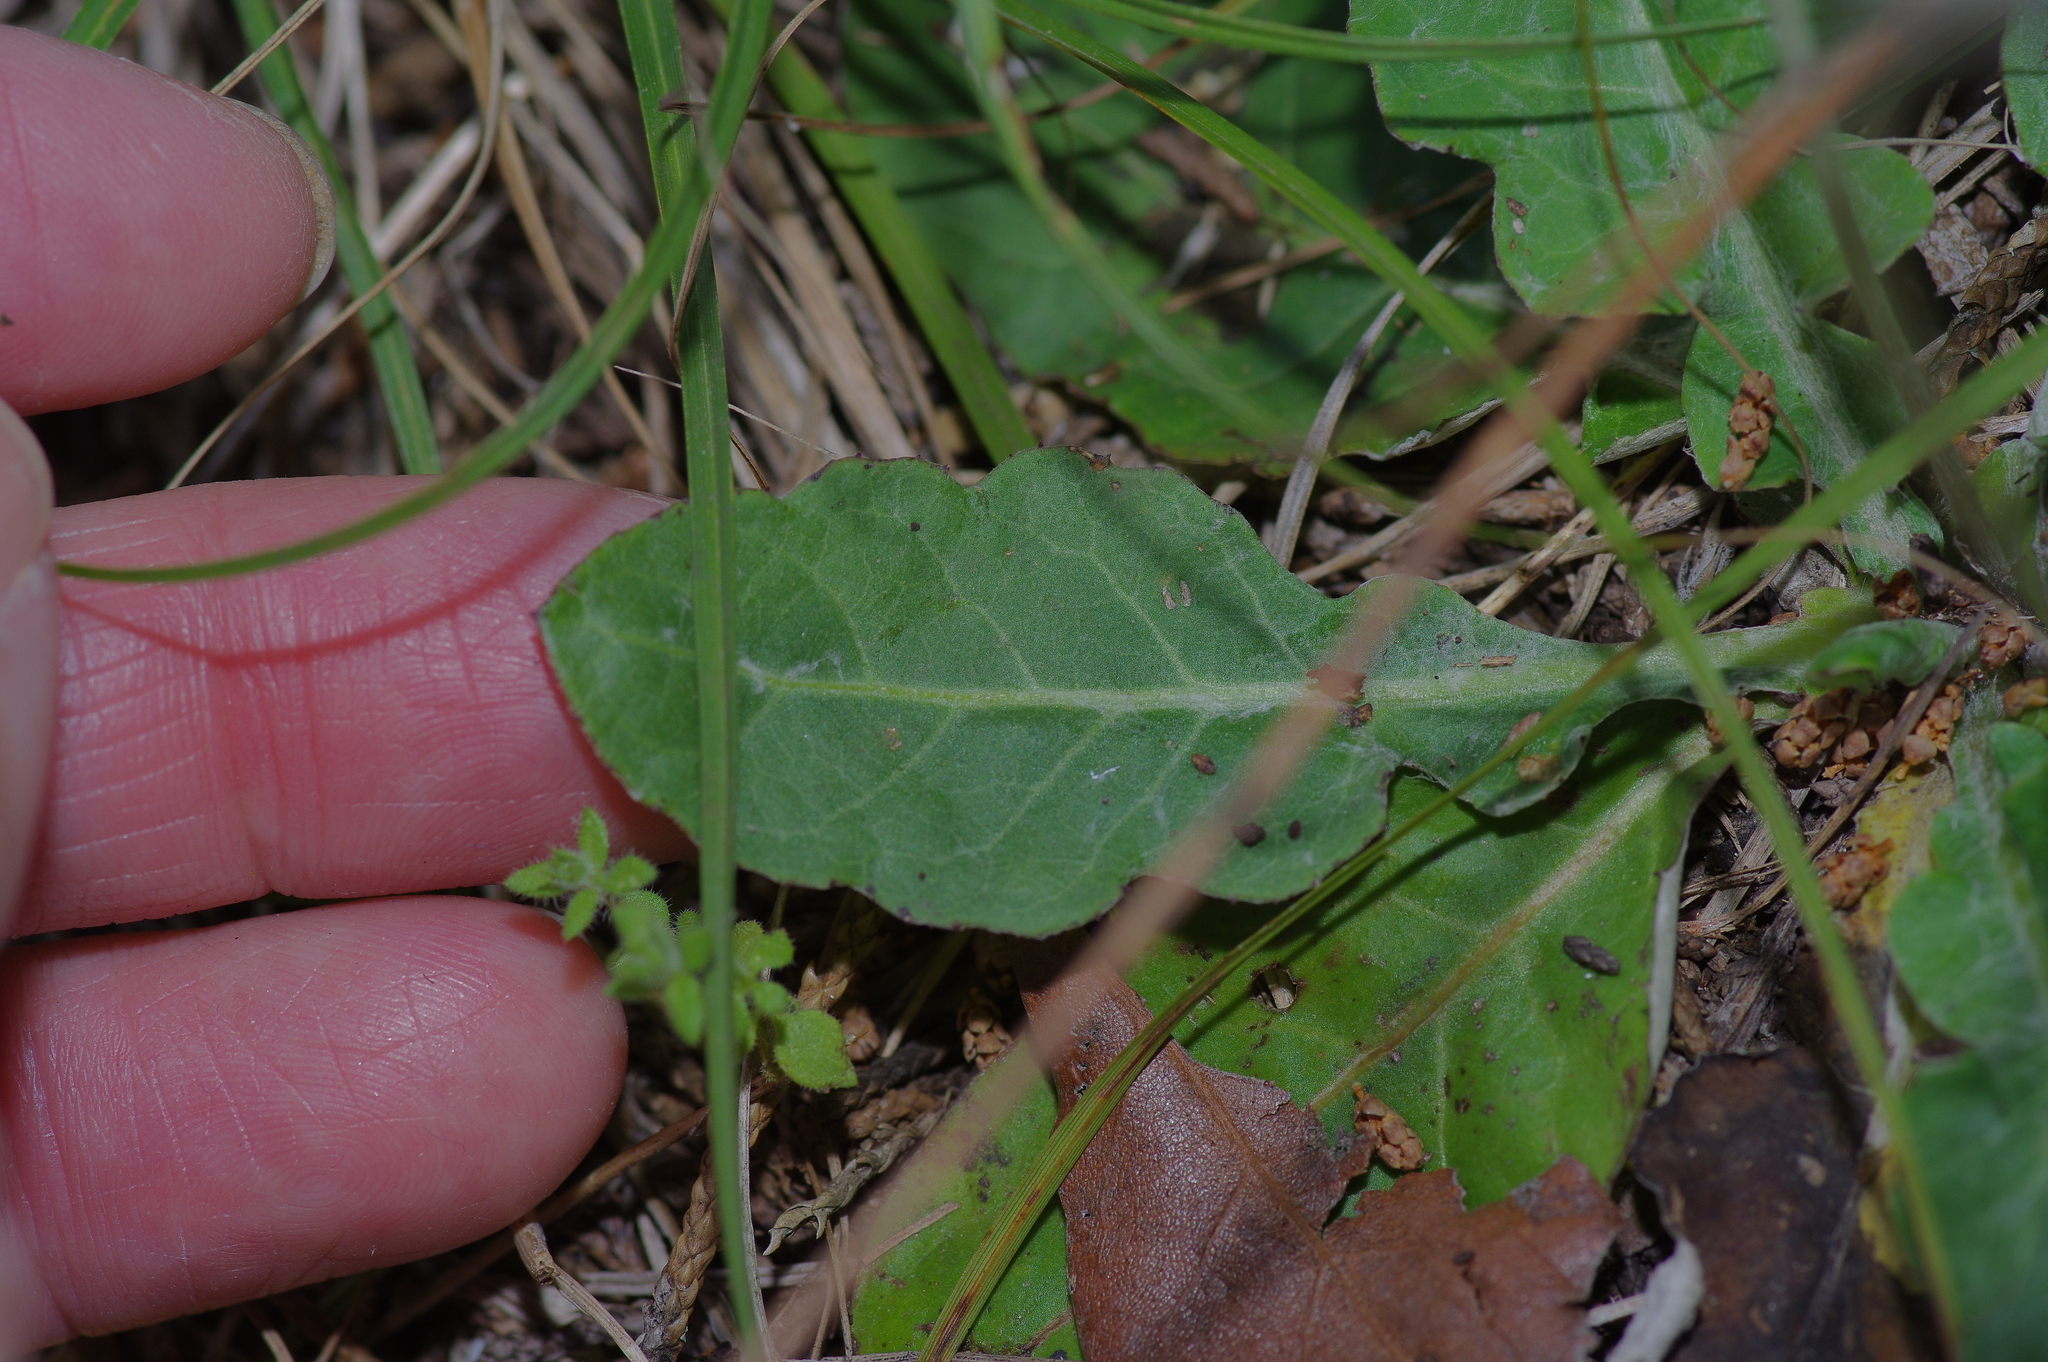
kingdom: Plantae
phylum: Tracheophyta
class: Magnoliopsida
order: Asterales
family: Asteraceae
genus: Chaptalia
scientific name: Chaptalia texana
